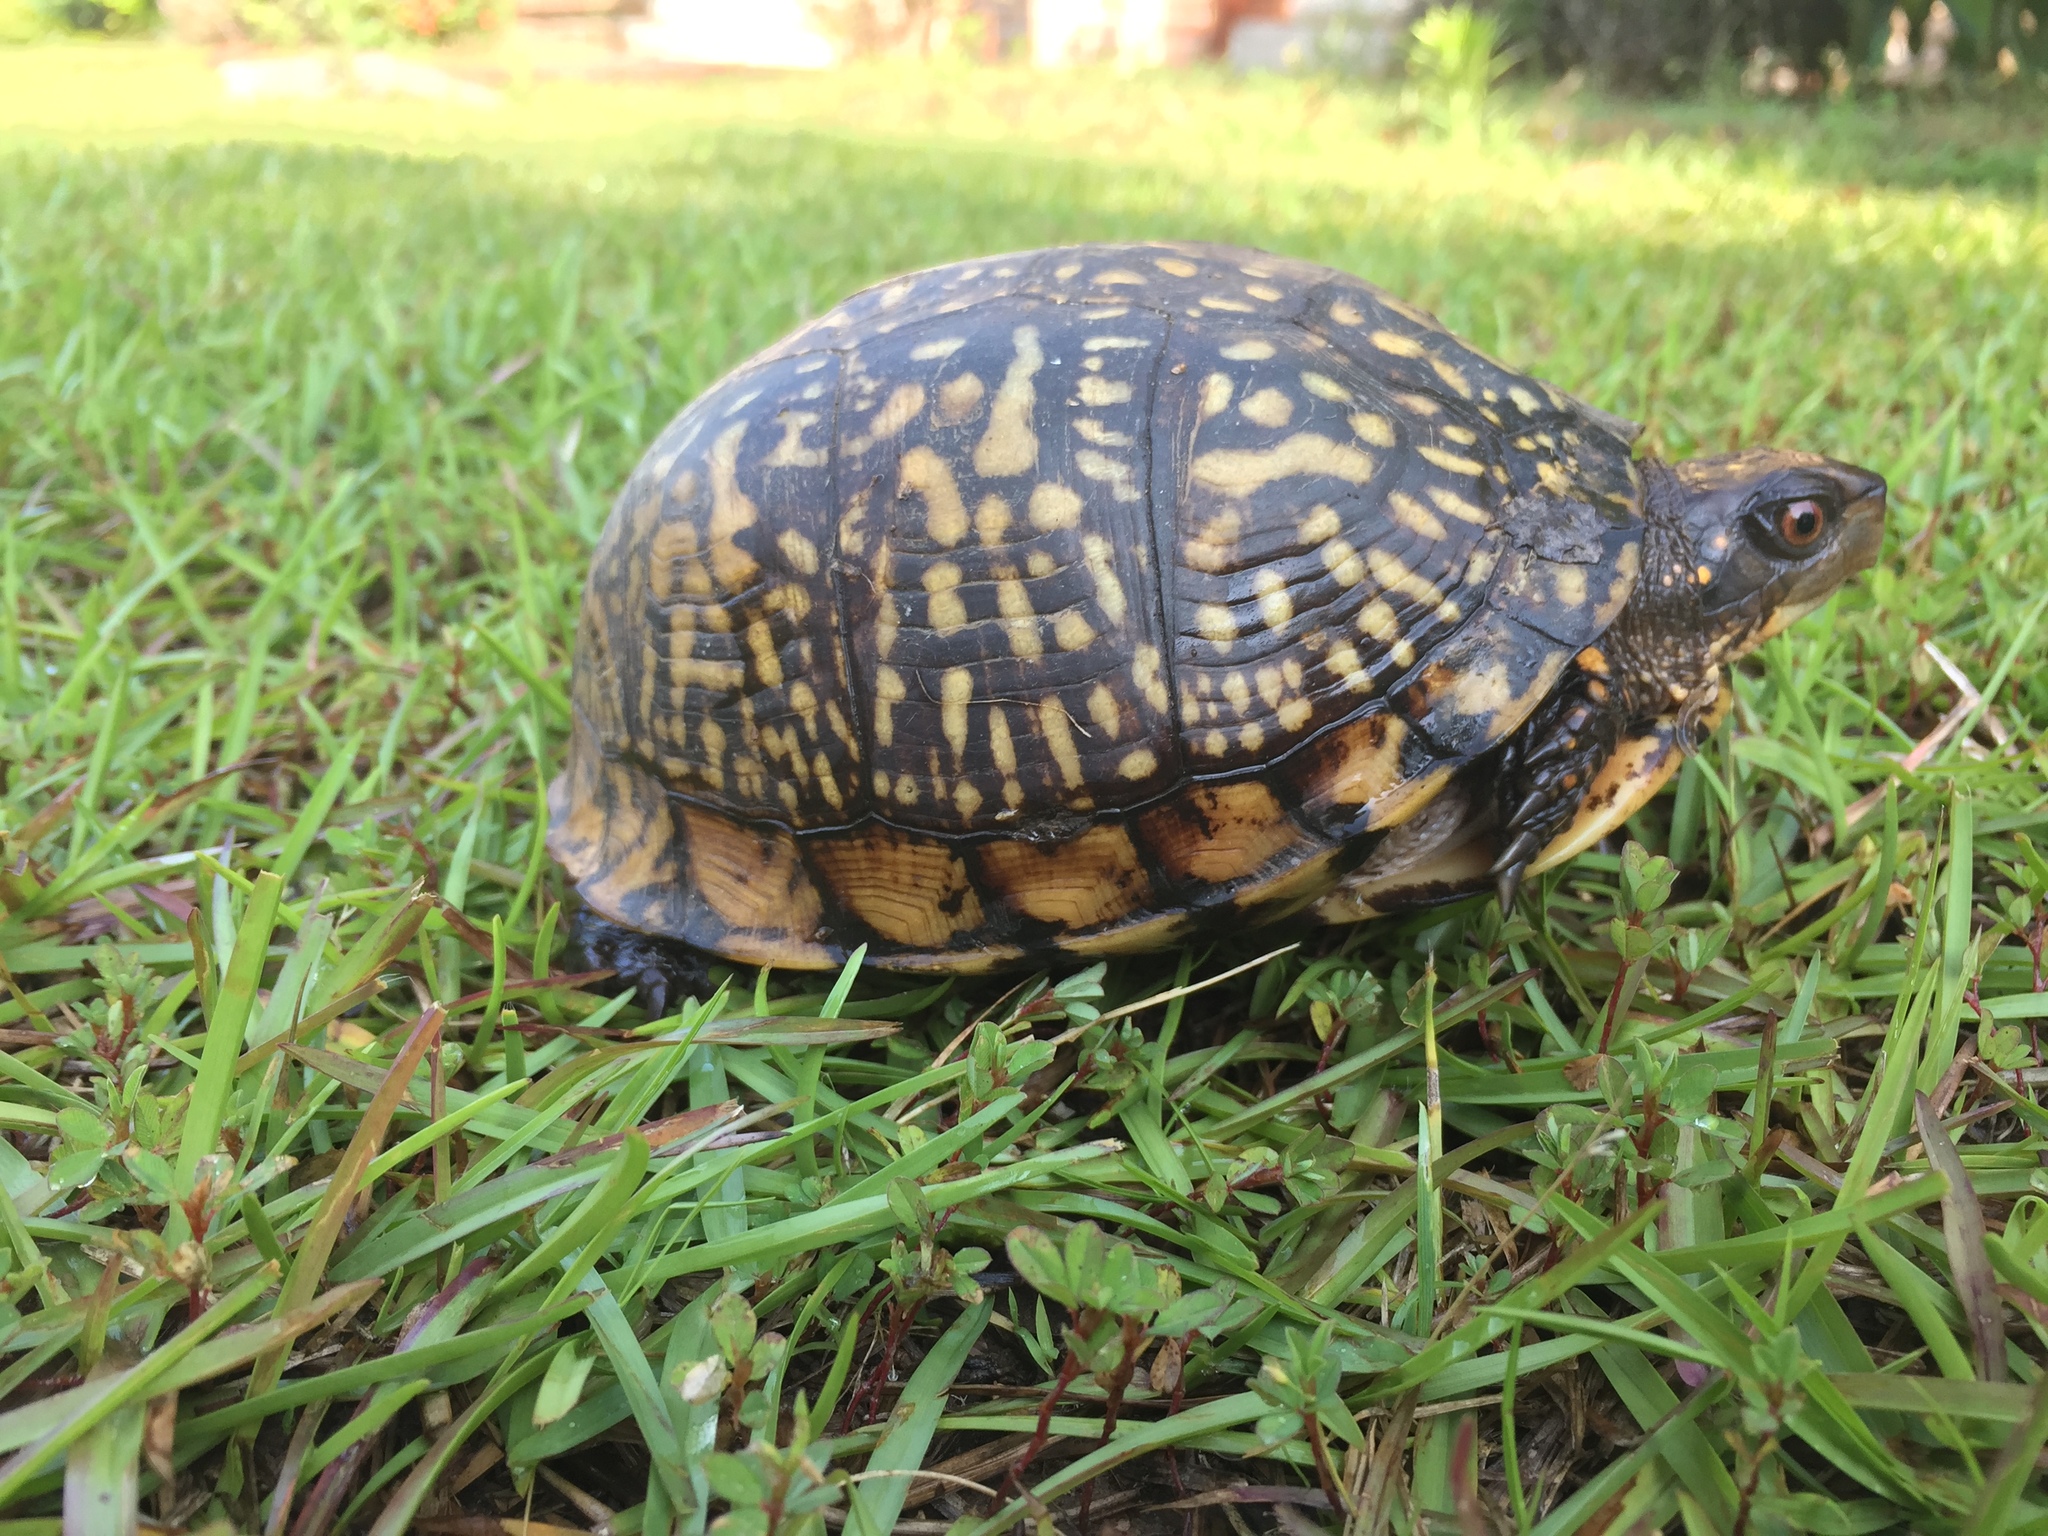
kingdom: Animalia
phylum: Chordata
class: Testudines
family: Emydidae
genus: Terrapene
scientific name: Terrapene carolina
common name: Common box turtle
